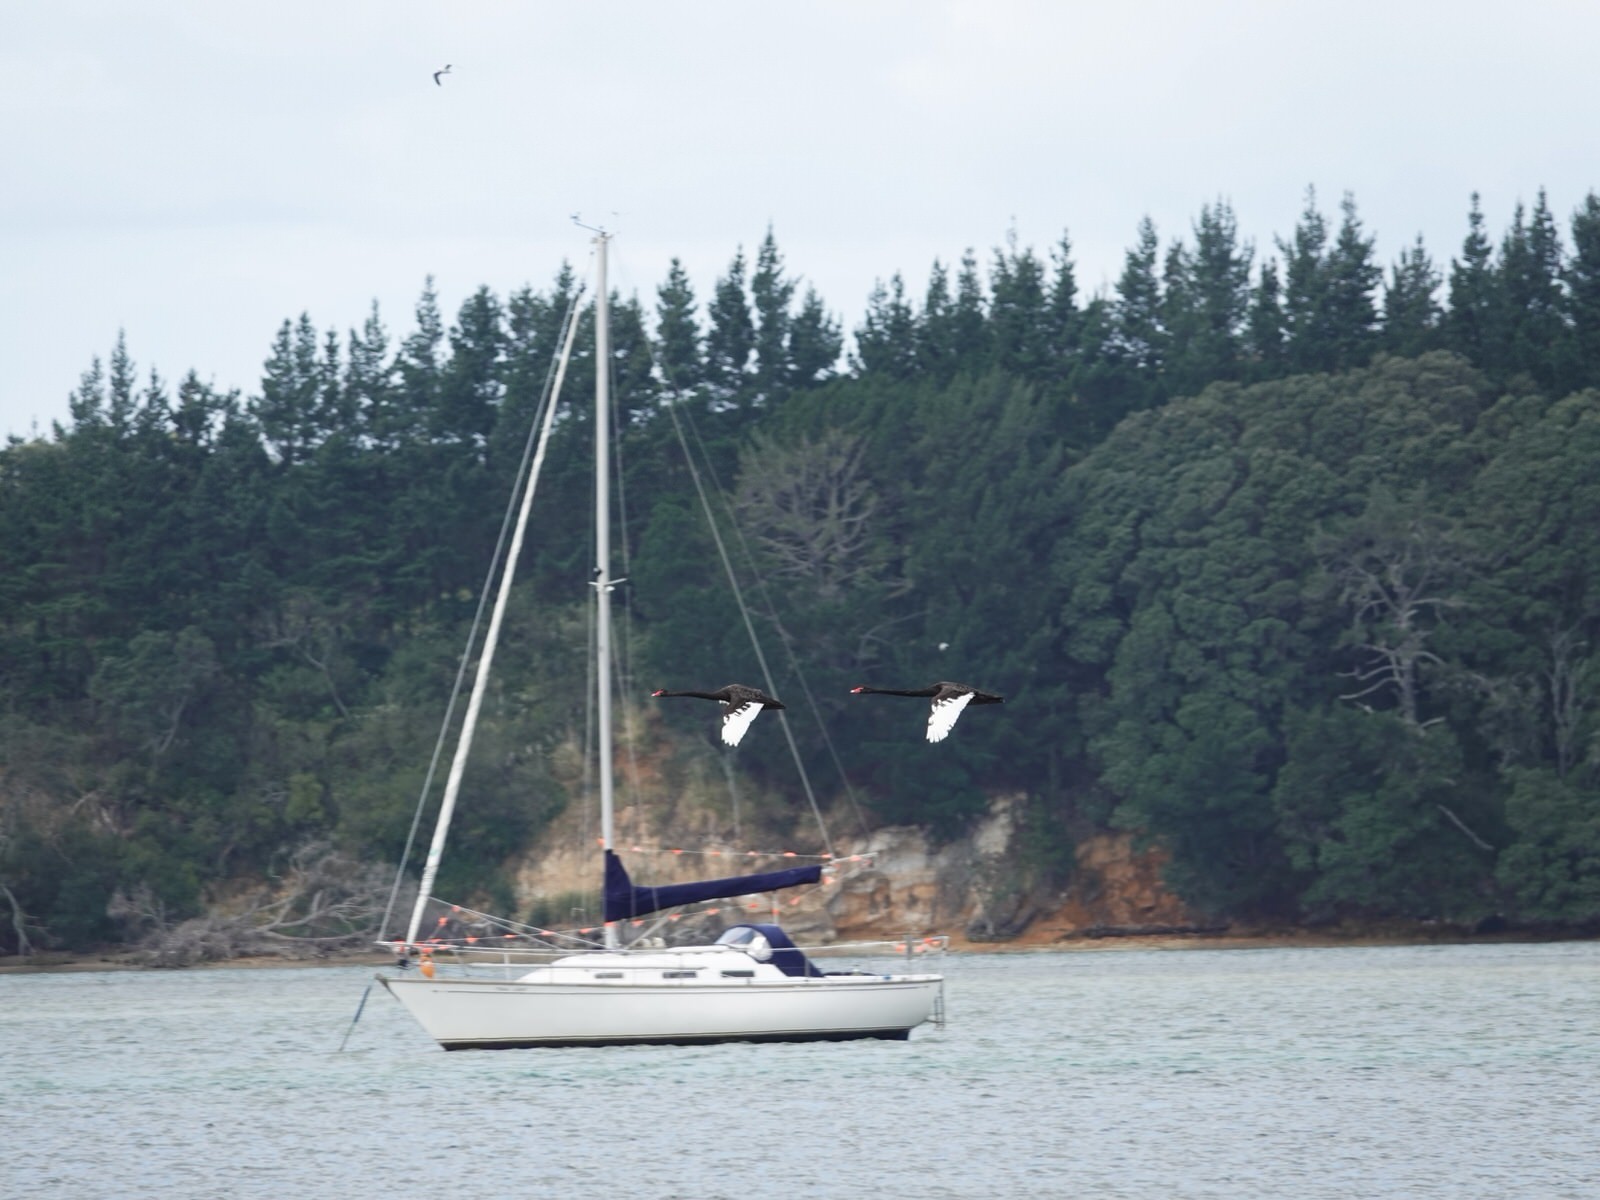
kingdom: Animalia
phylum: Chordata
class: Aves
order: Anseriformes
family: Anatidae
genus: Cygnus
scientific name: Cygnus atratus
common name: Black swan
